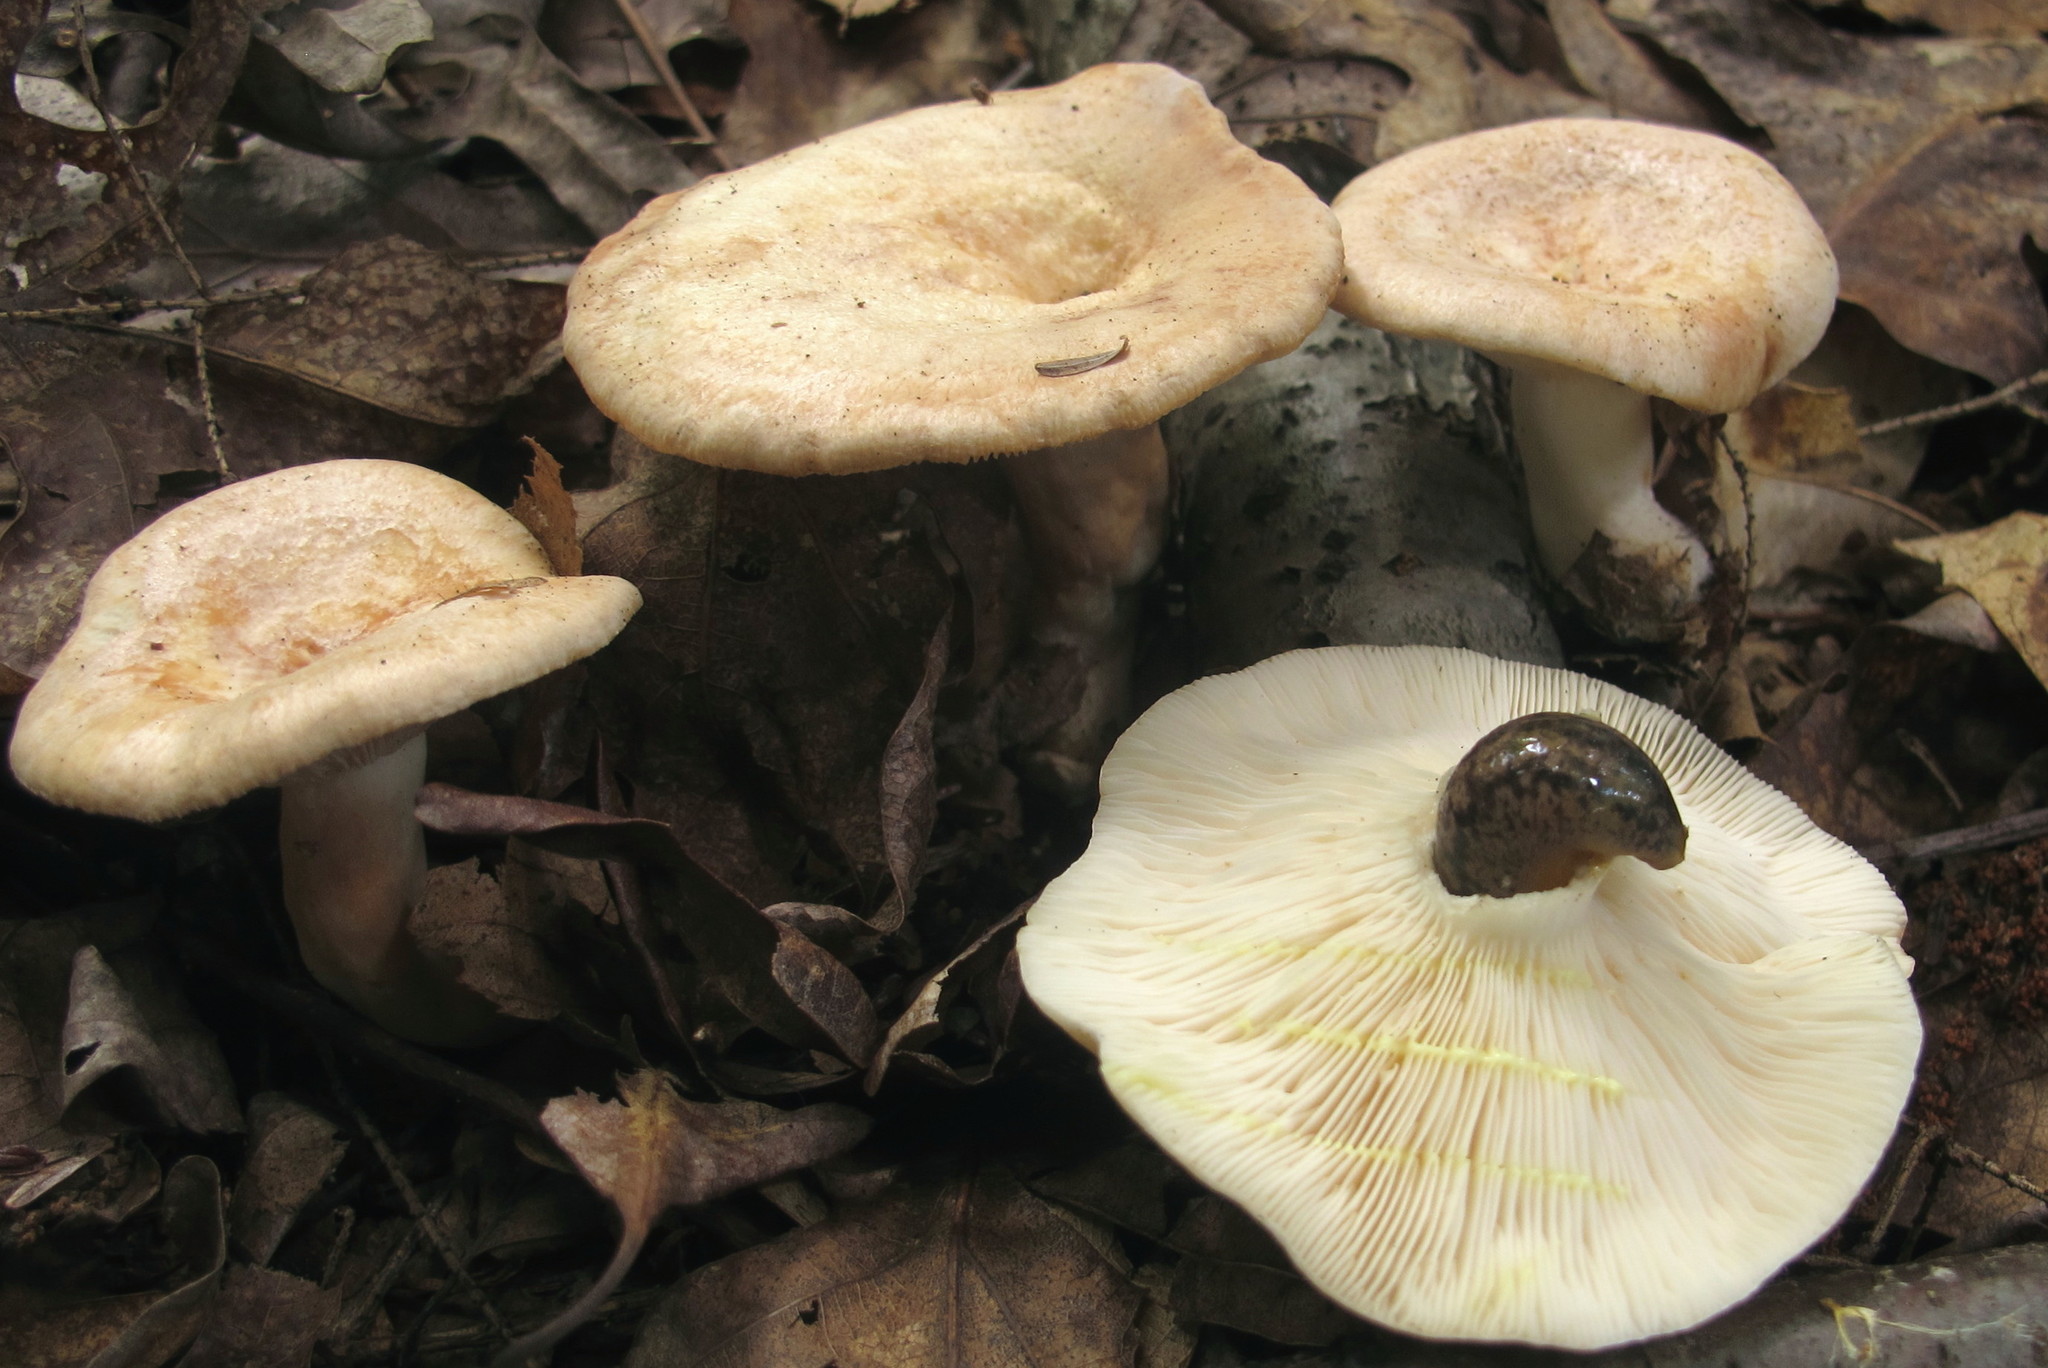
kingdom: Fungi
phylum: Basidiomycota
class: Agaricomycetes
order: Russulales
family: Russulaceae
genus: Lactarius
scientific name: Lactarius chrysorrheus
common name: Yellowdrop milkcap
